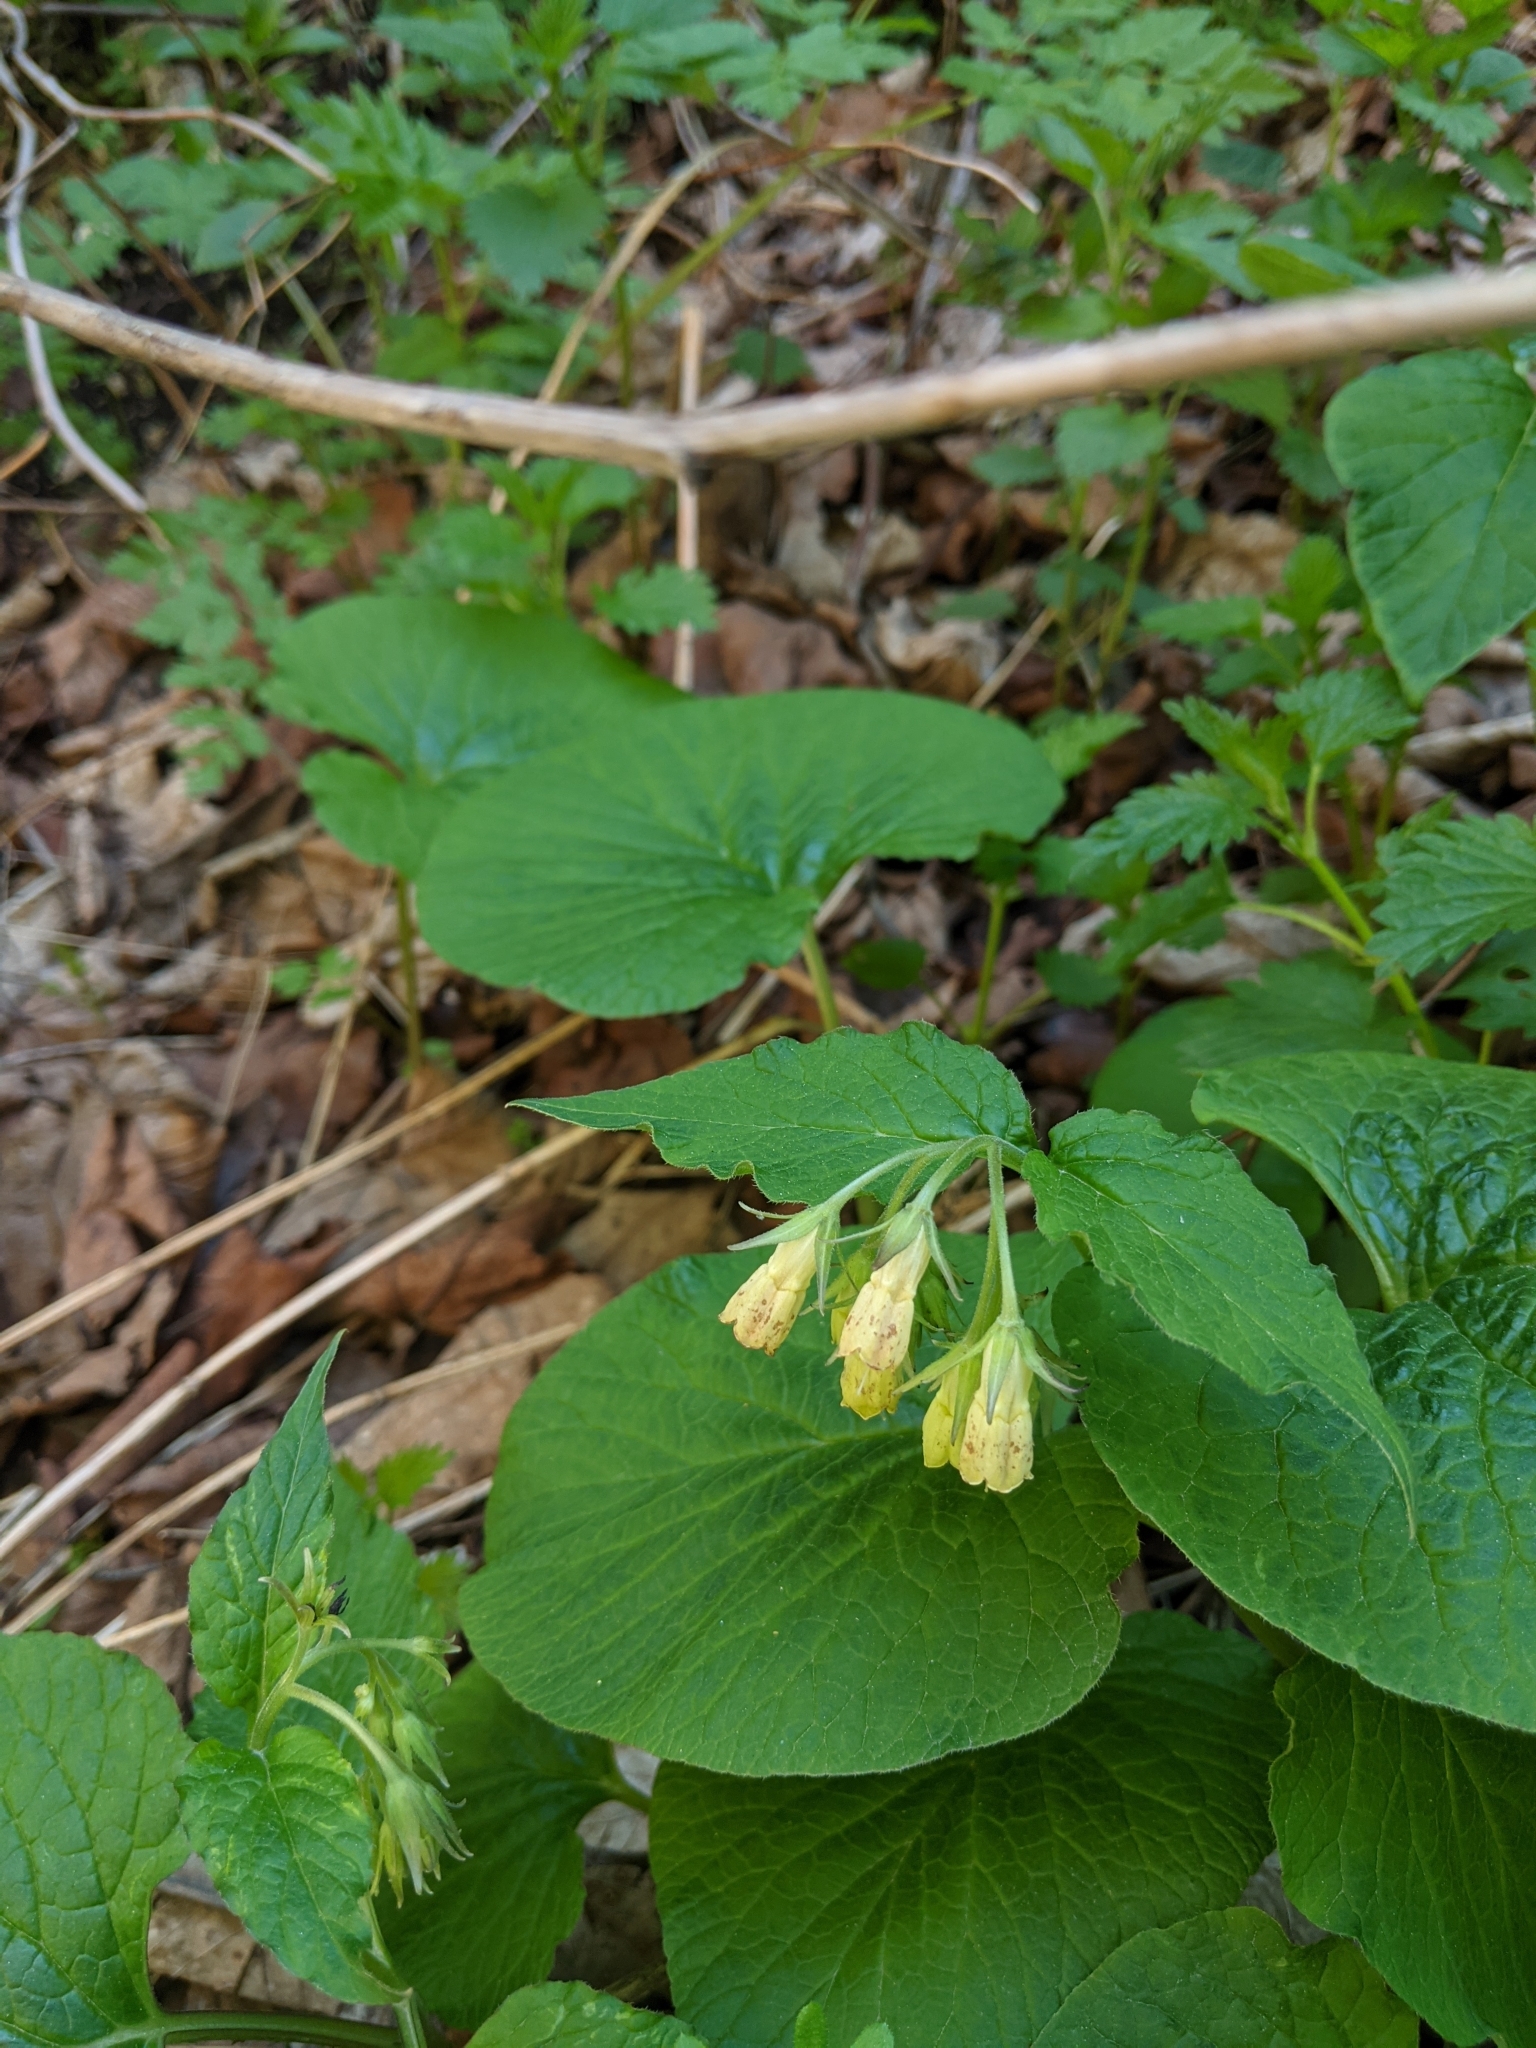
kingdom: Plantae
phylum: Tracheophyta
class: Magnoliopsida
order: Boraginales
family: Boraginaceae
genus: Symphytum
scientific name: Symphytum tuberosum
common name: Tuberous comfrey
